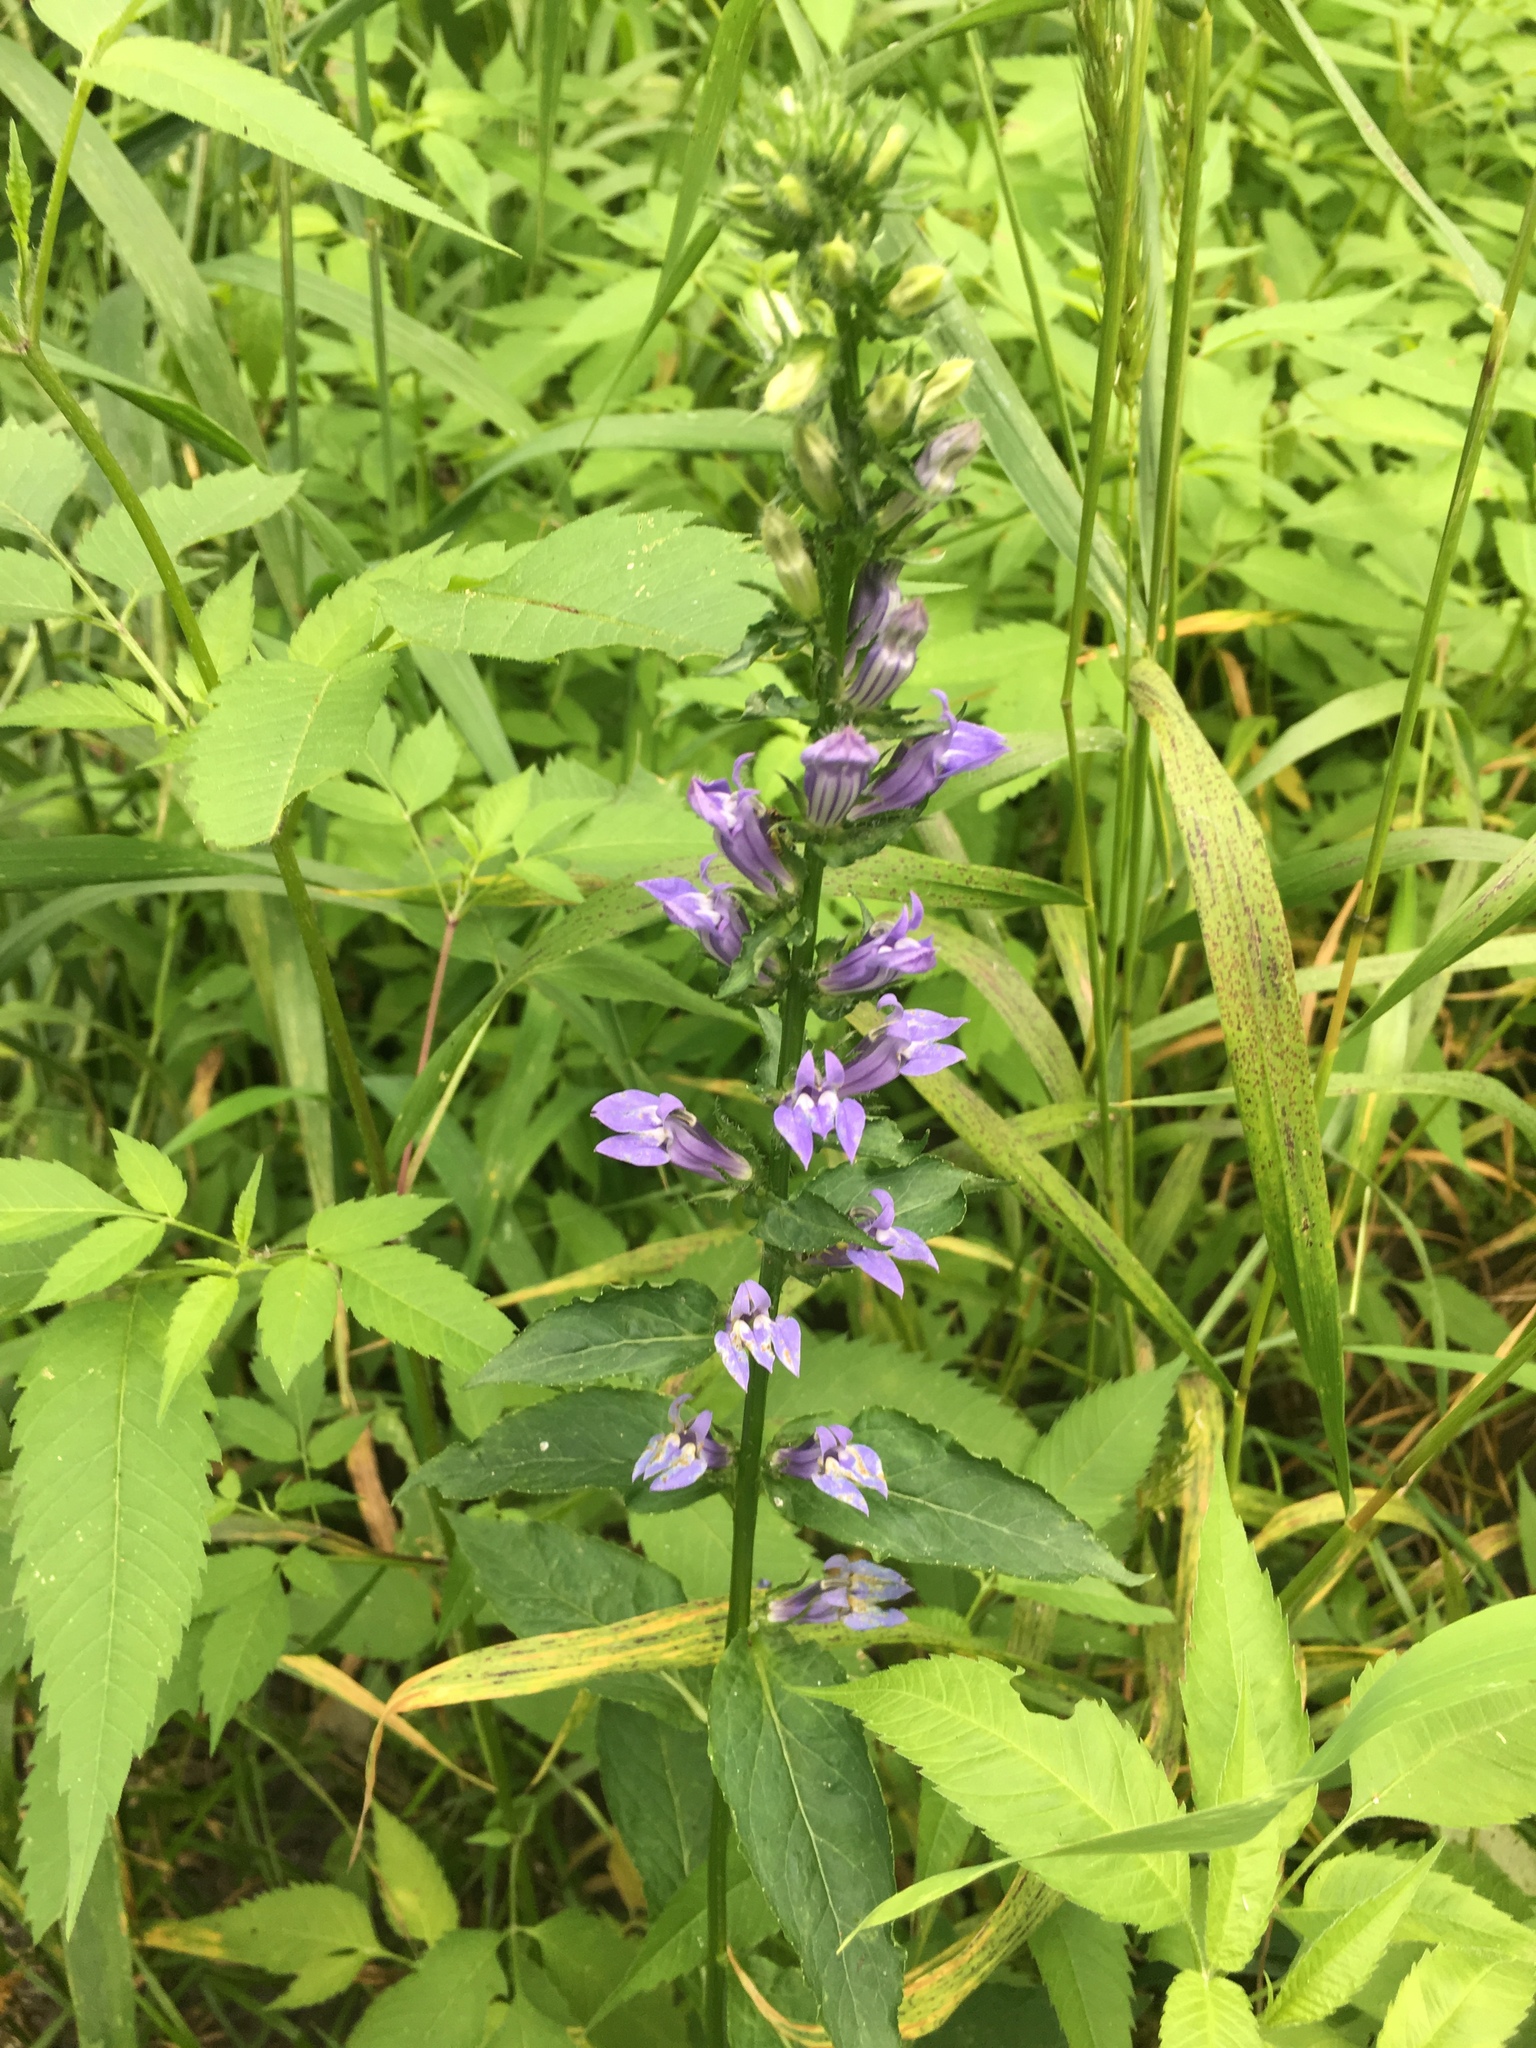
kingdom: Plantae
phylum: Tracheophyta
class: Magnoliopsida
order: Asterales
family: Campanulaceae
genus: Lobelia
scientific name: Lobelia siphilitica
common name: Great lobelia
